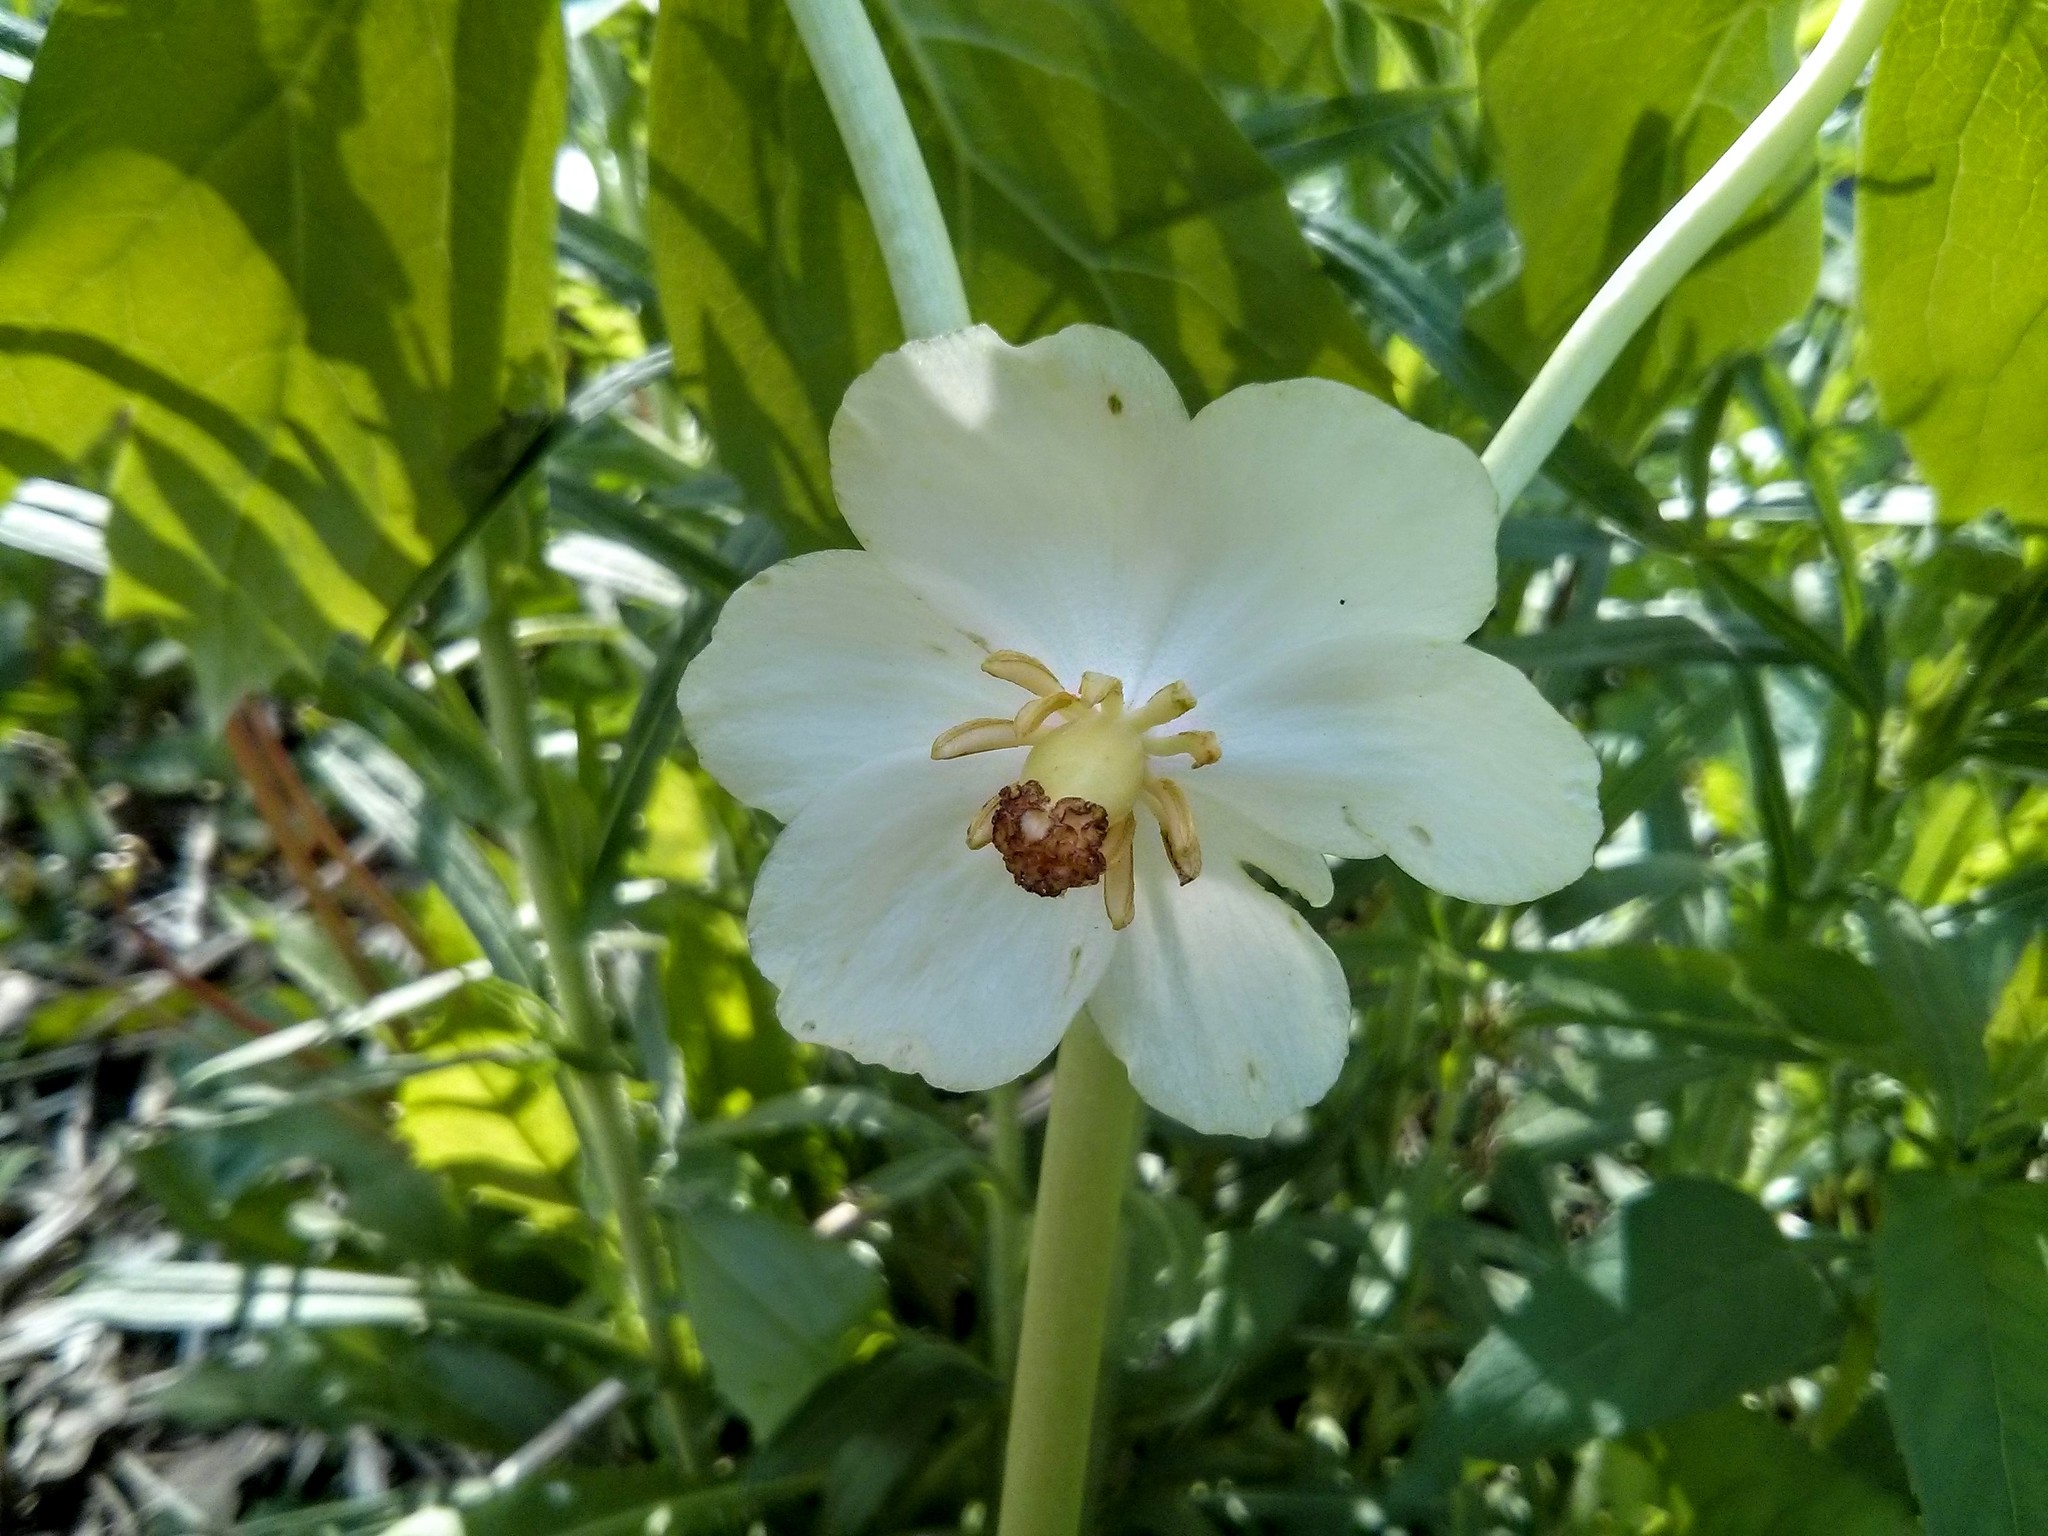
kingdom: Plantae
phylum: Tracheophyta
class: Magnoliopsida
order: Ranunculales
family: Berberidaceae
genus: Podophyllum
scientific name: Podophyllum peltatum
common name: Wild mandrake
